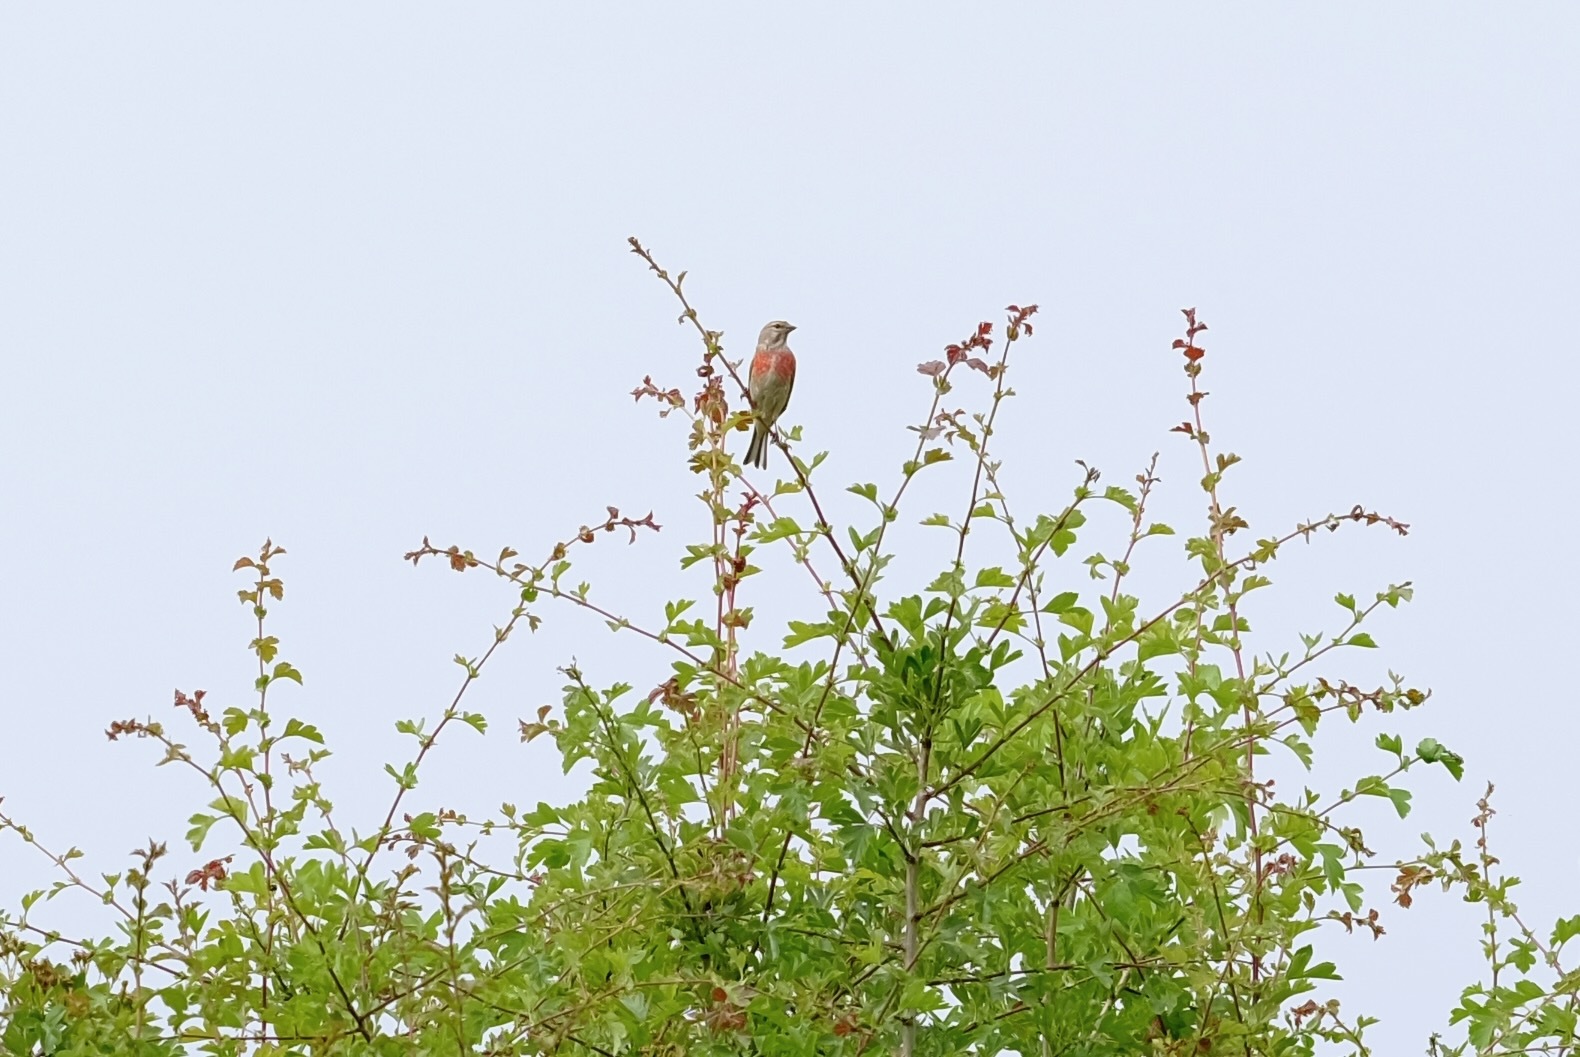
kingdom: Animalia
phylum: Chordata
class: Aves
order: Passeriformes
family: Fringillidae
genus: Linaria
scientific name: Linaria cannabina
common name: Common linnet
